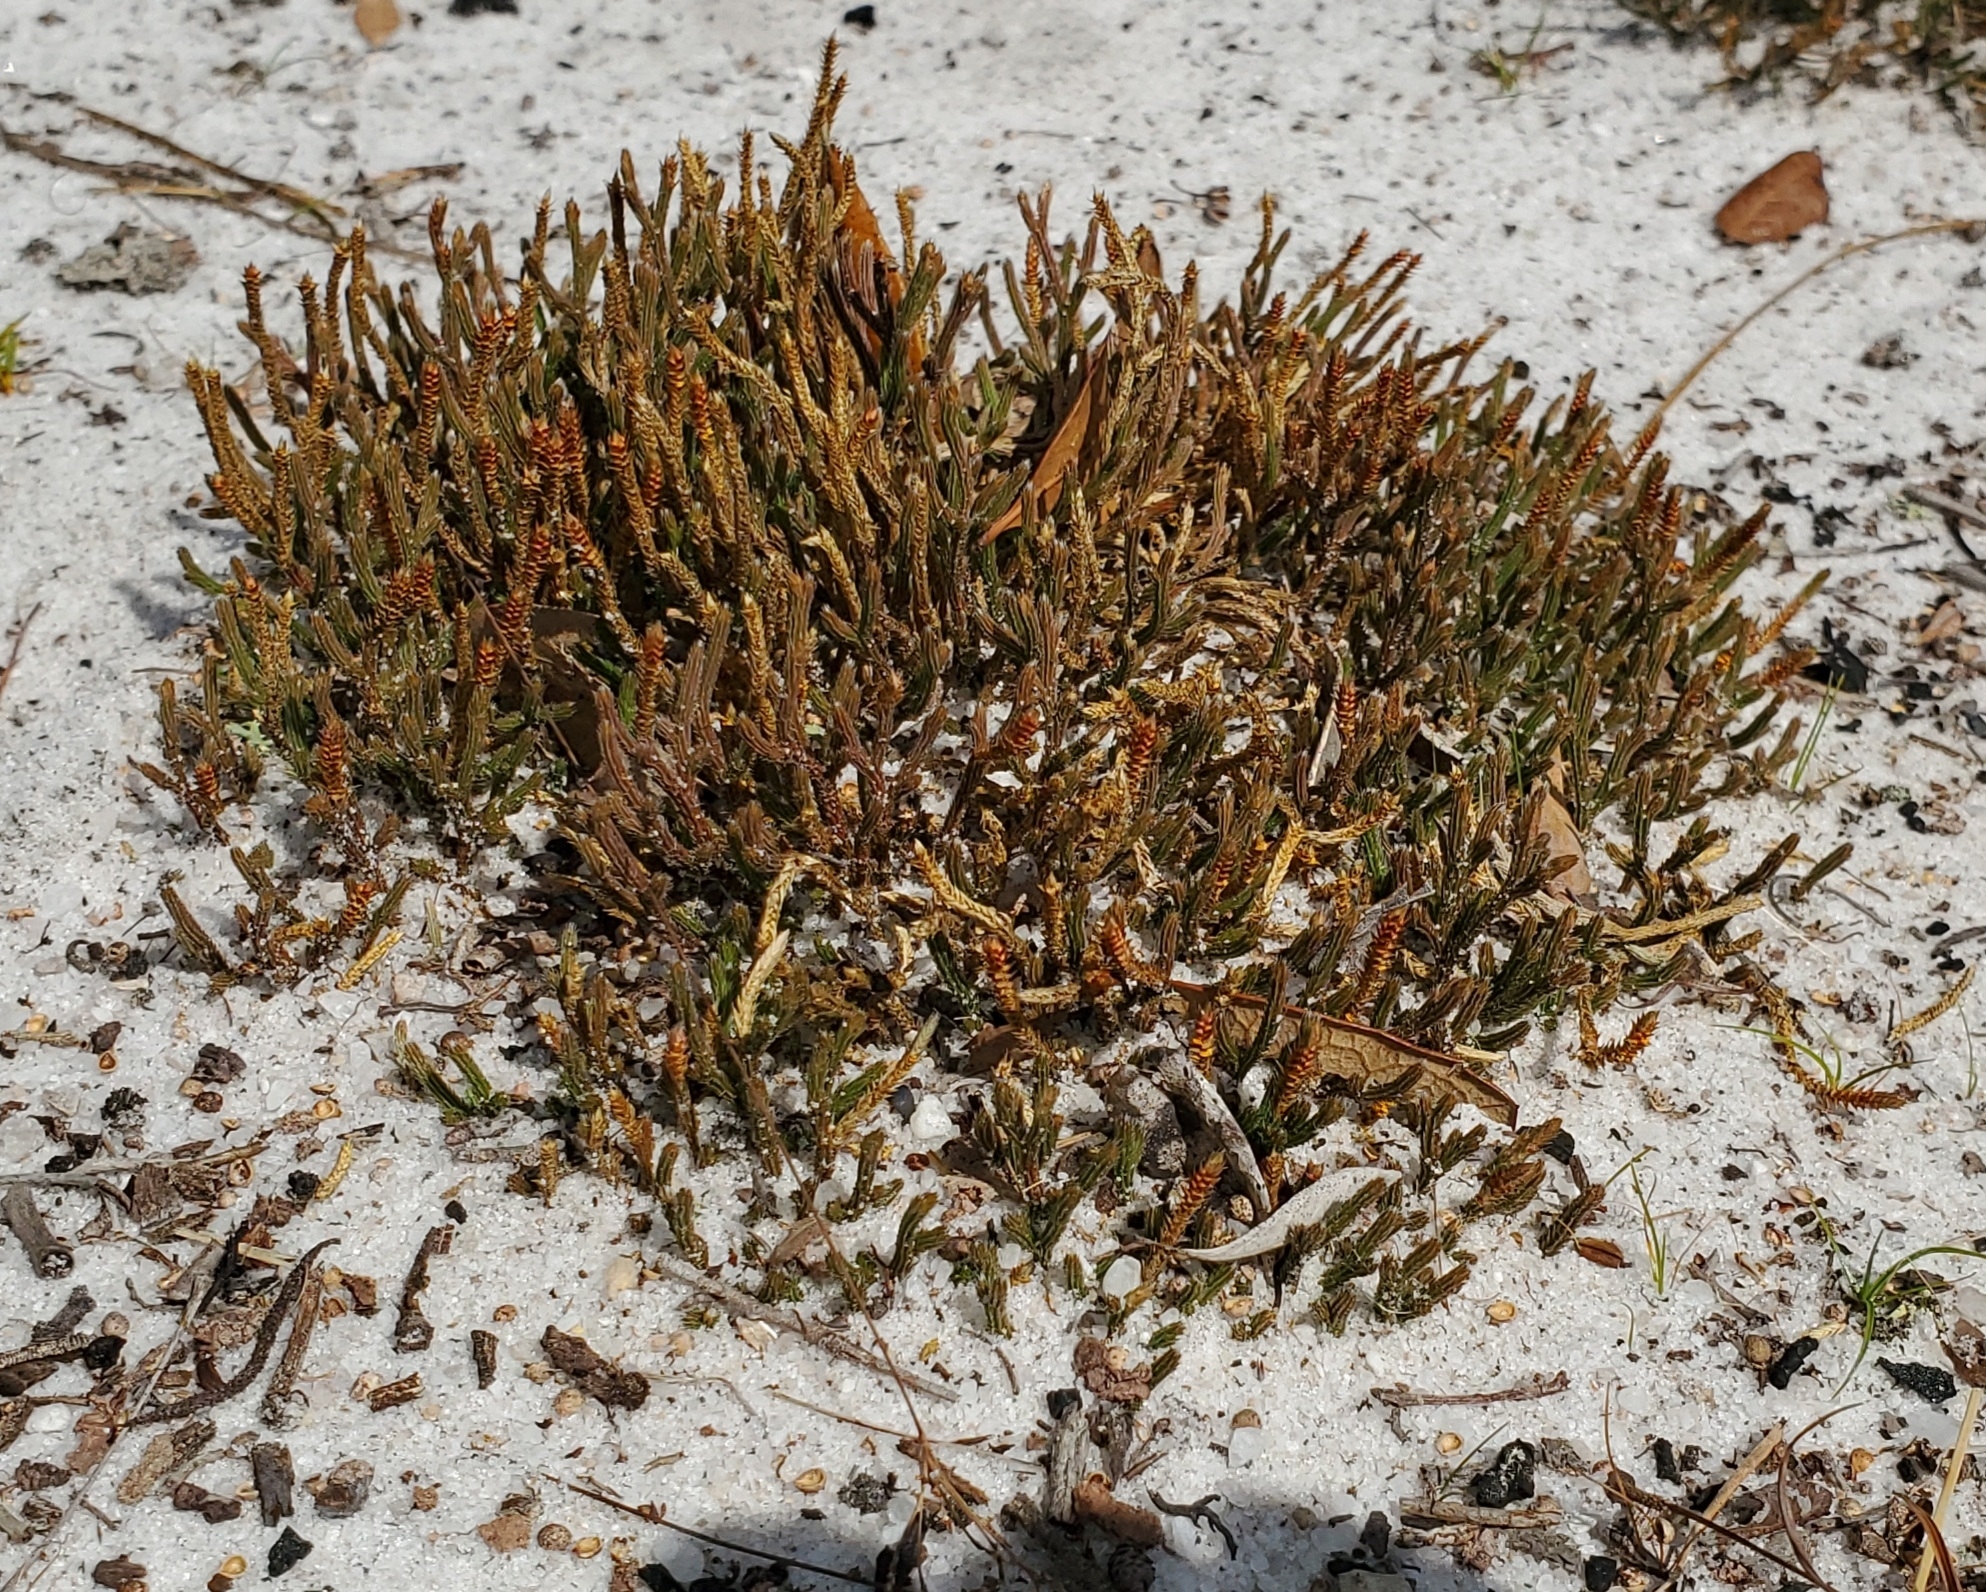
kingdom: Plantae
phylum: Tracheophyta
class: Lycopodiopsida
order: Selaginellales
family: Selaginellaceae
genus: Selaginella
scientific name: Selaginella arenicola
